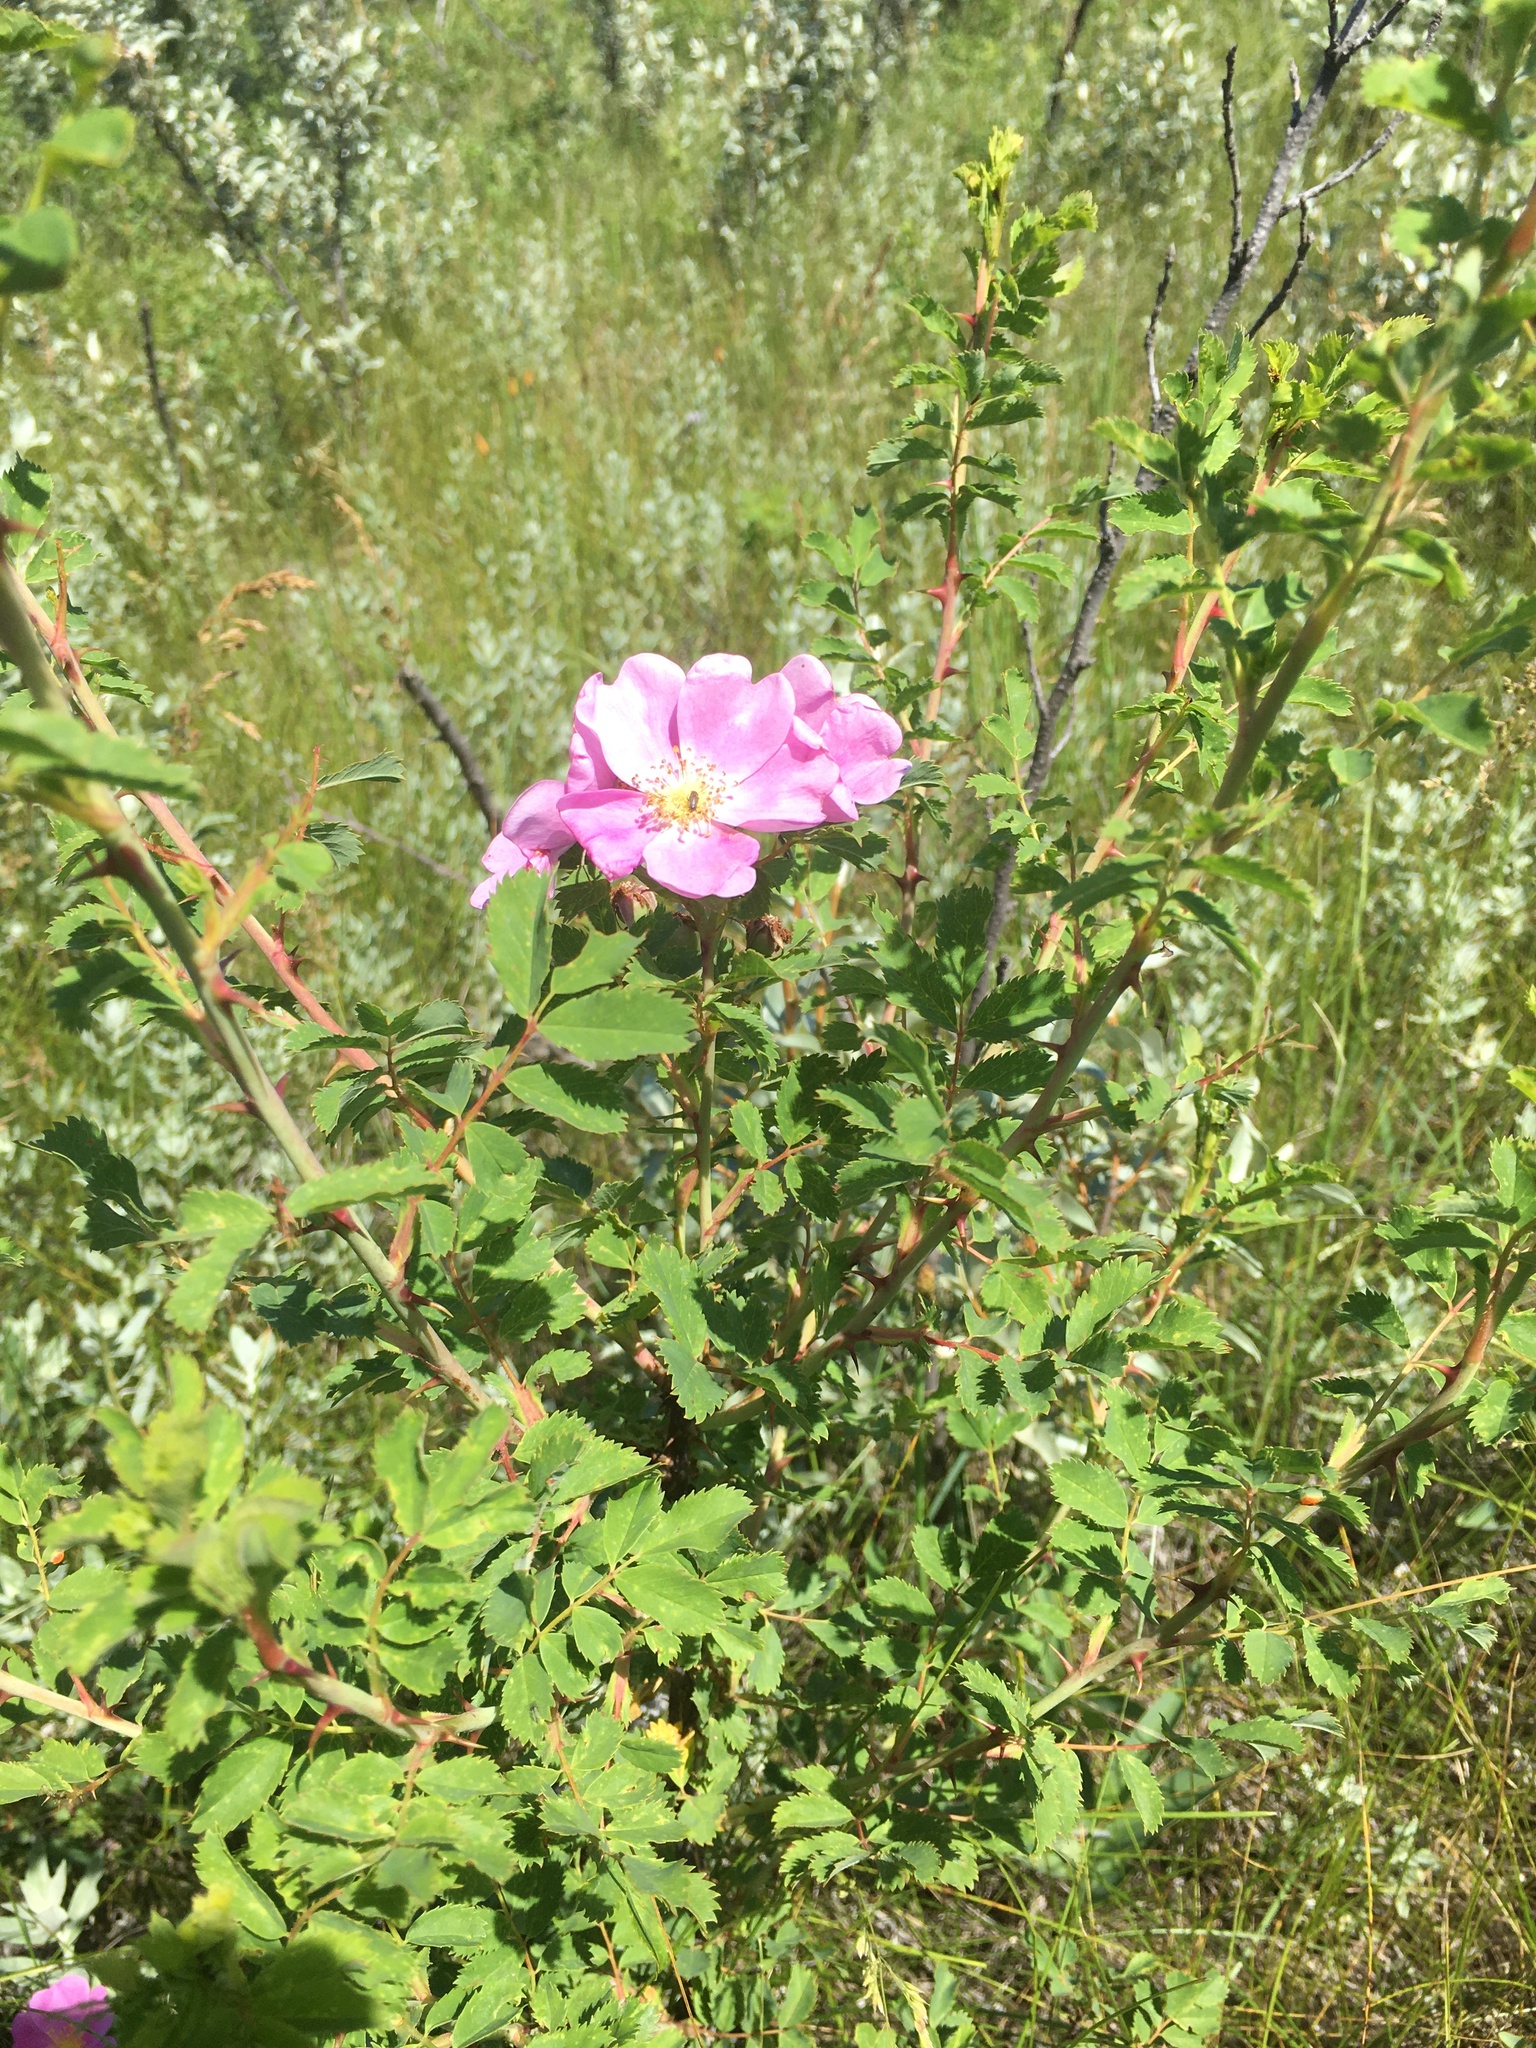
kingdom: Plantae
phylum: Tracheophyta
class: Magnoliopsida
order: Rosales
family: Rosaceae
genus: Rosa
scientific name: Rosa woodsii
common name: Woods's rose
